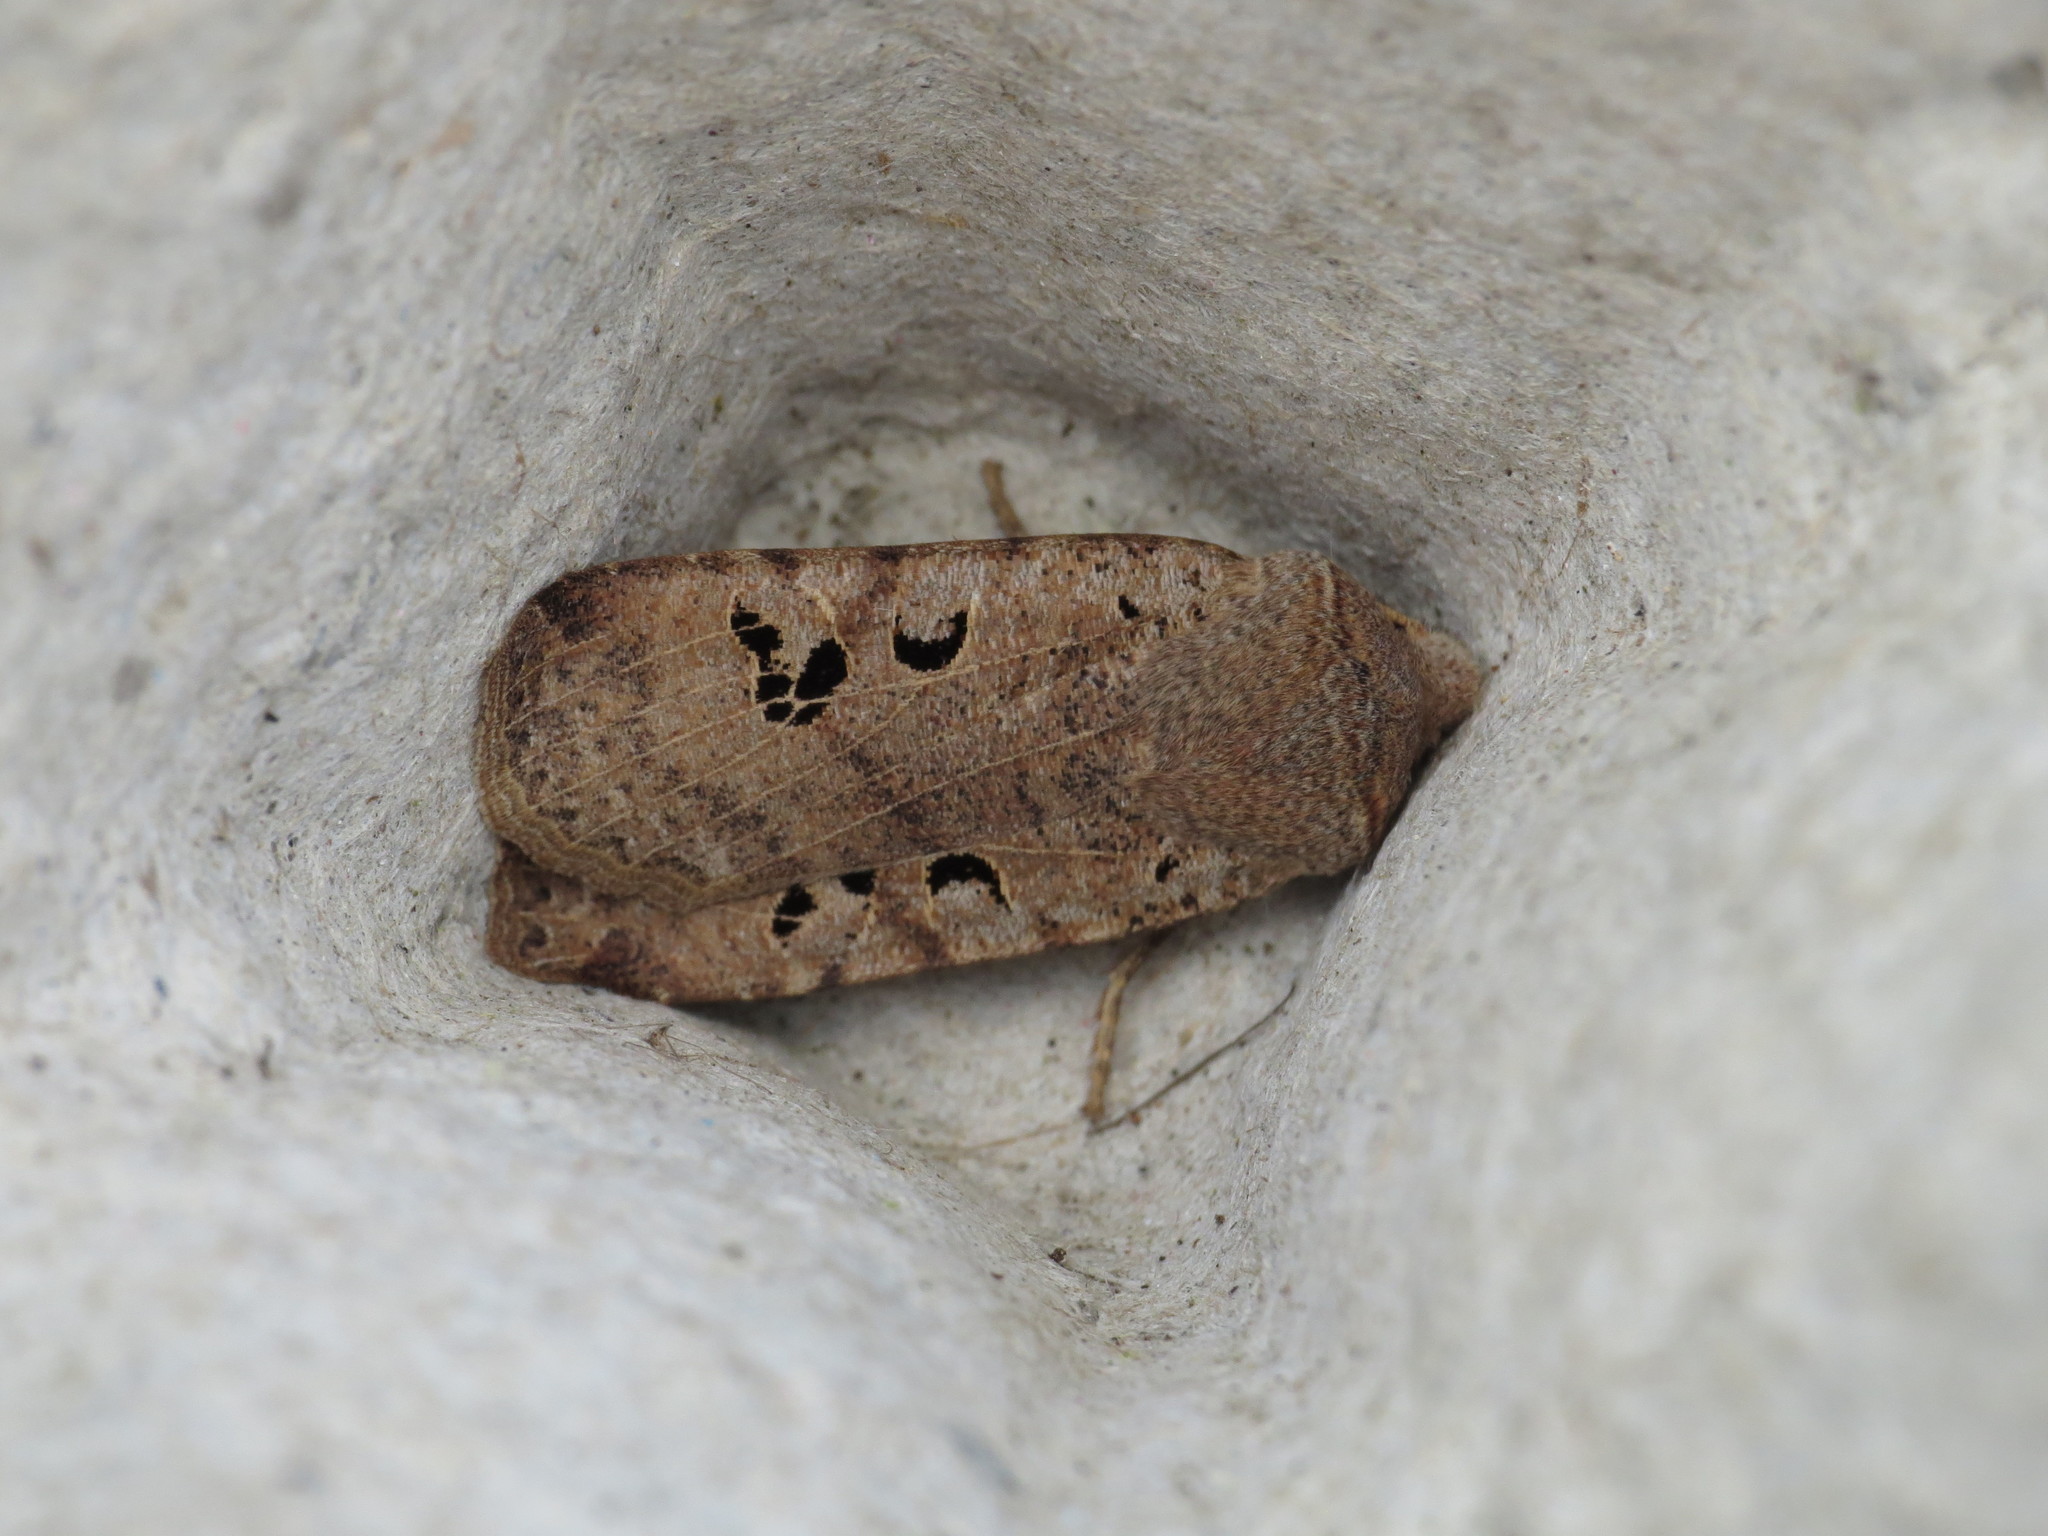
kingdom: Animalia
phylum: Arthropoda
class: Insecta
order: Lepidoptera
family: Noctuidae
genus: Conistra
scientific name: Conistra rubiginosa
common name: Black-spotted chestnut
